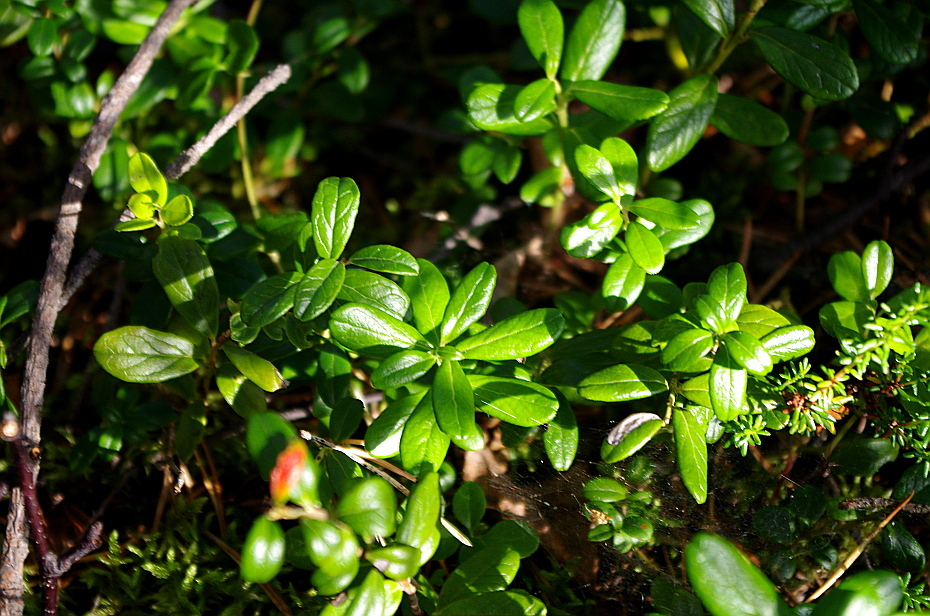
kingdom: Plantae
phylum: Tracheophyta
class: Magnoliopsida
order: Ericales
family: Ericaceae
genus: Vaccinium
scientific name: Vaccinium vitis-idaea
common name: Cowberry
